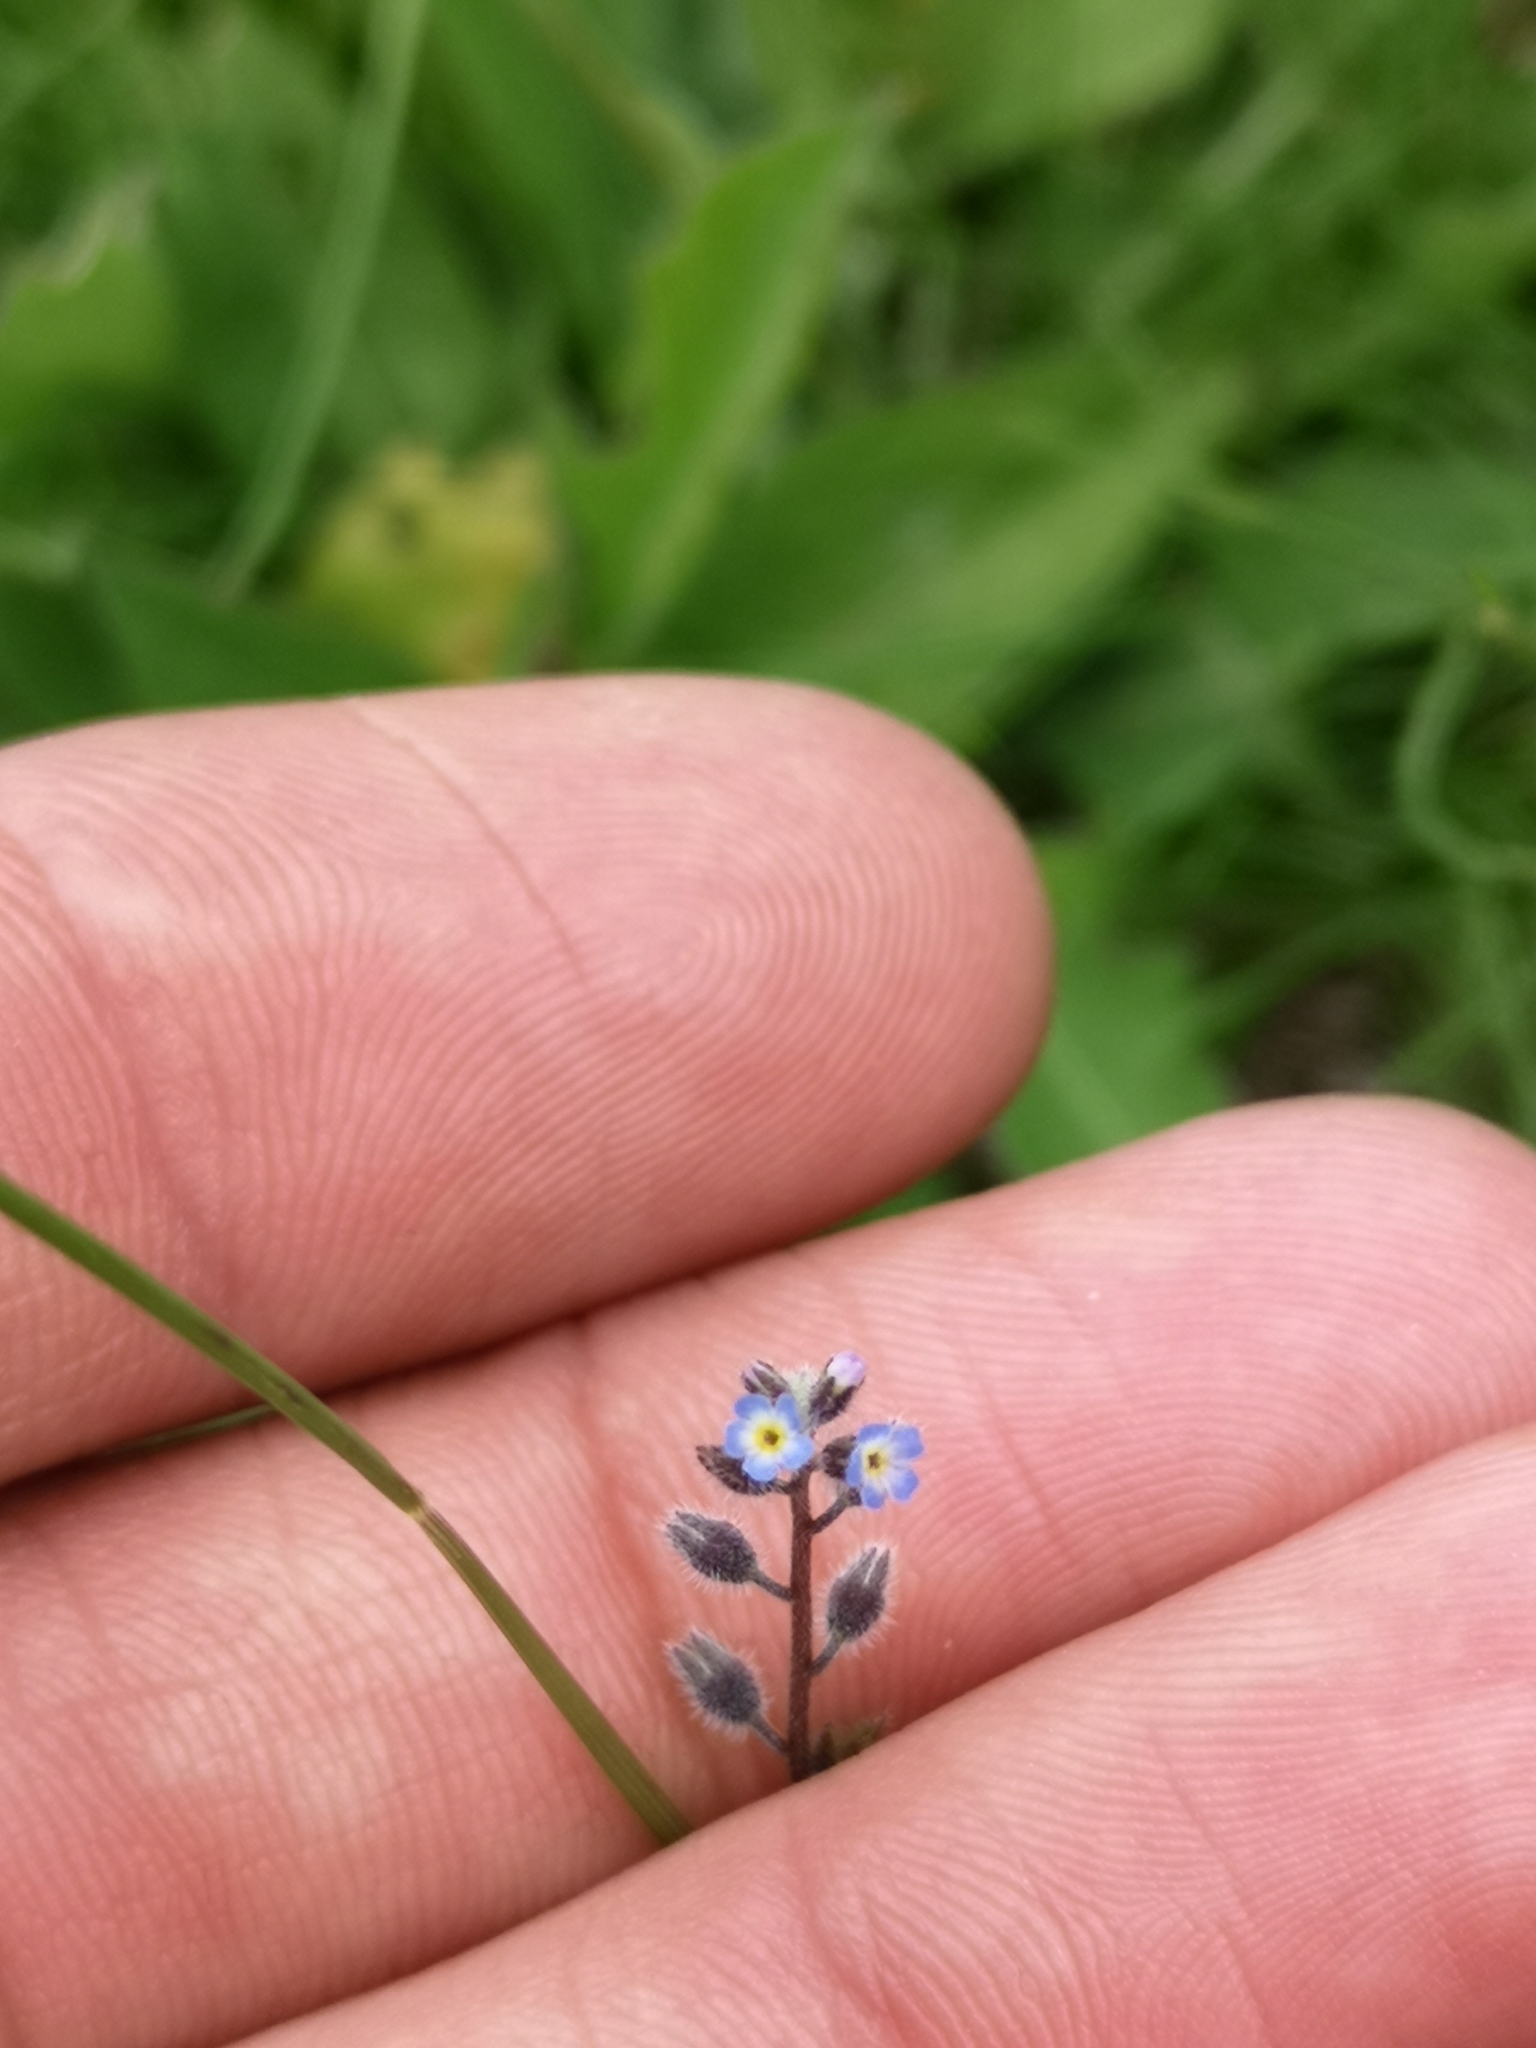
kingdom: Plantae
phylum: Tracheophyta
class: Magnoliopsida
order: Boraginales
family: Boraginaceae
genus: Myosotis
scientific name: Myosotis ramosissima
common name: Early forget-me-not
